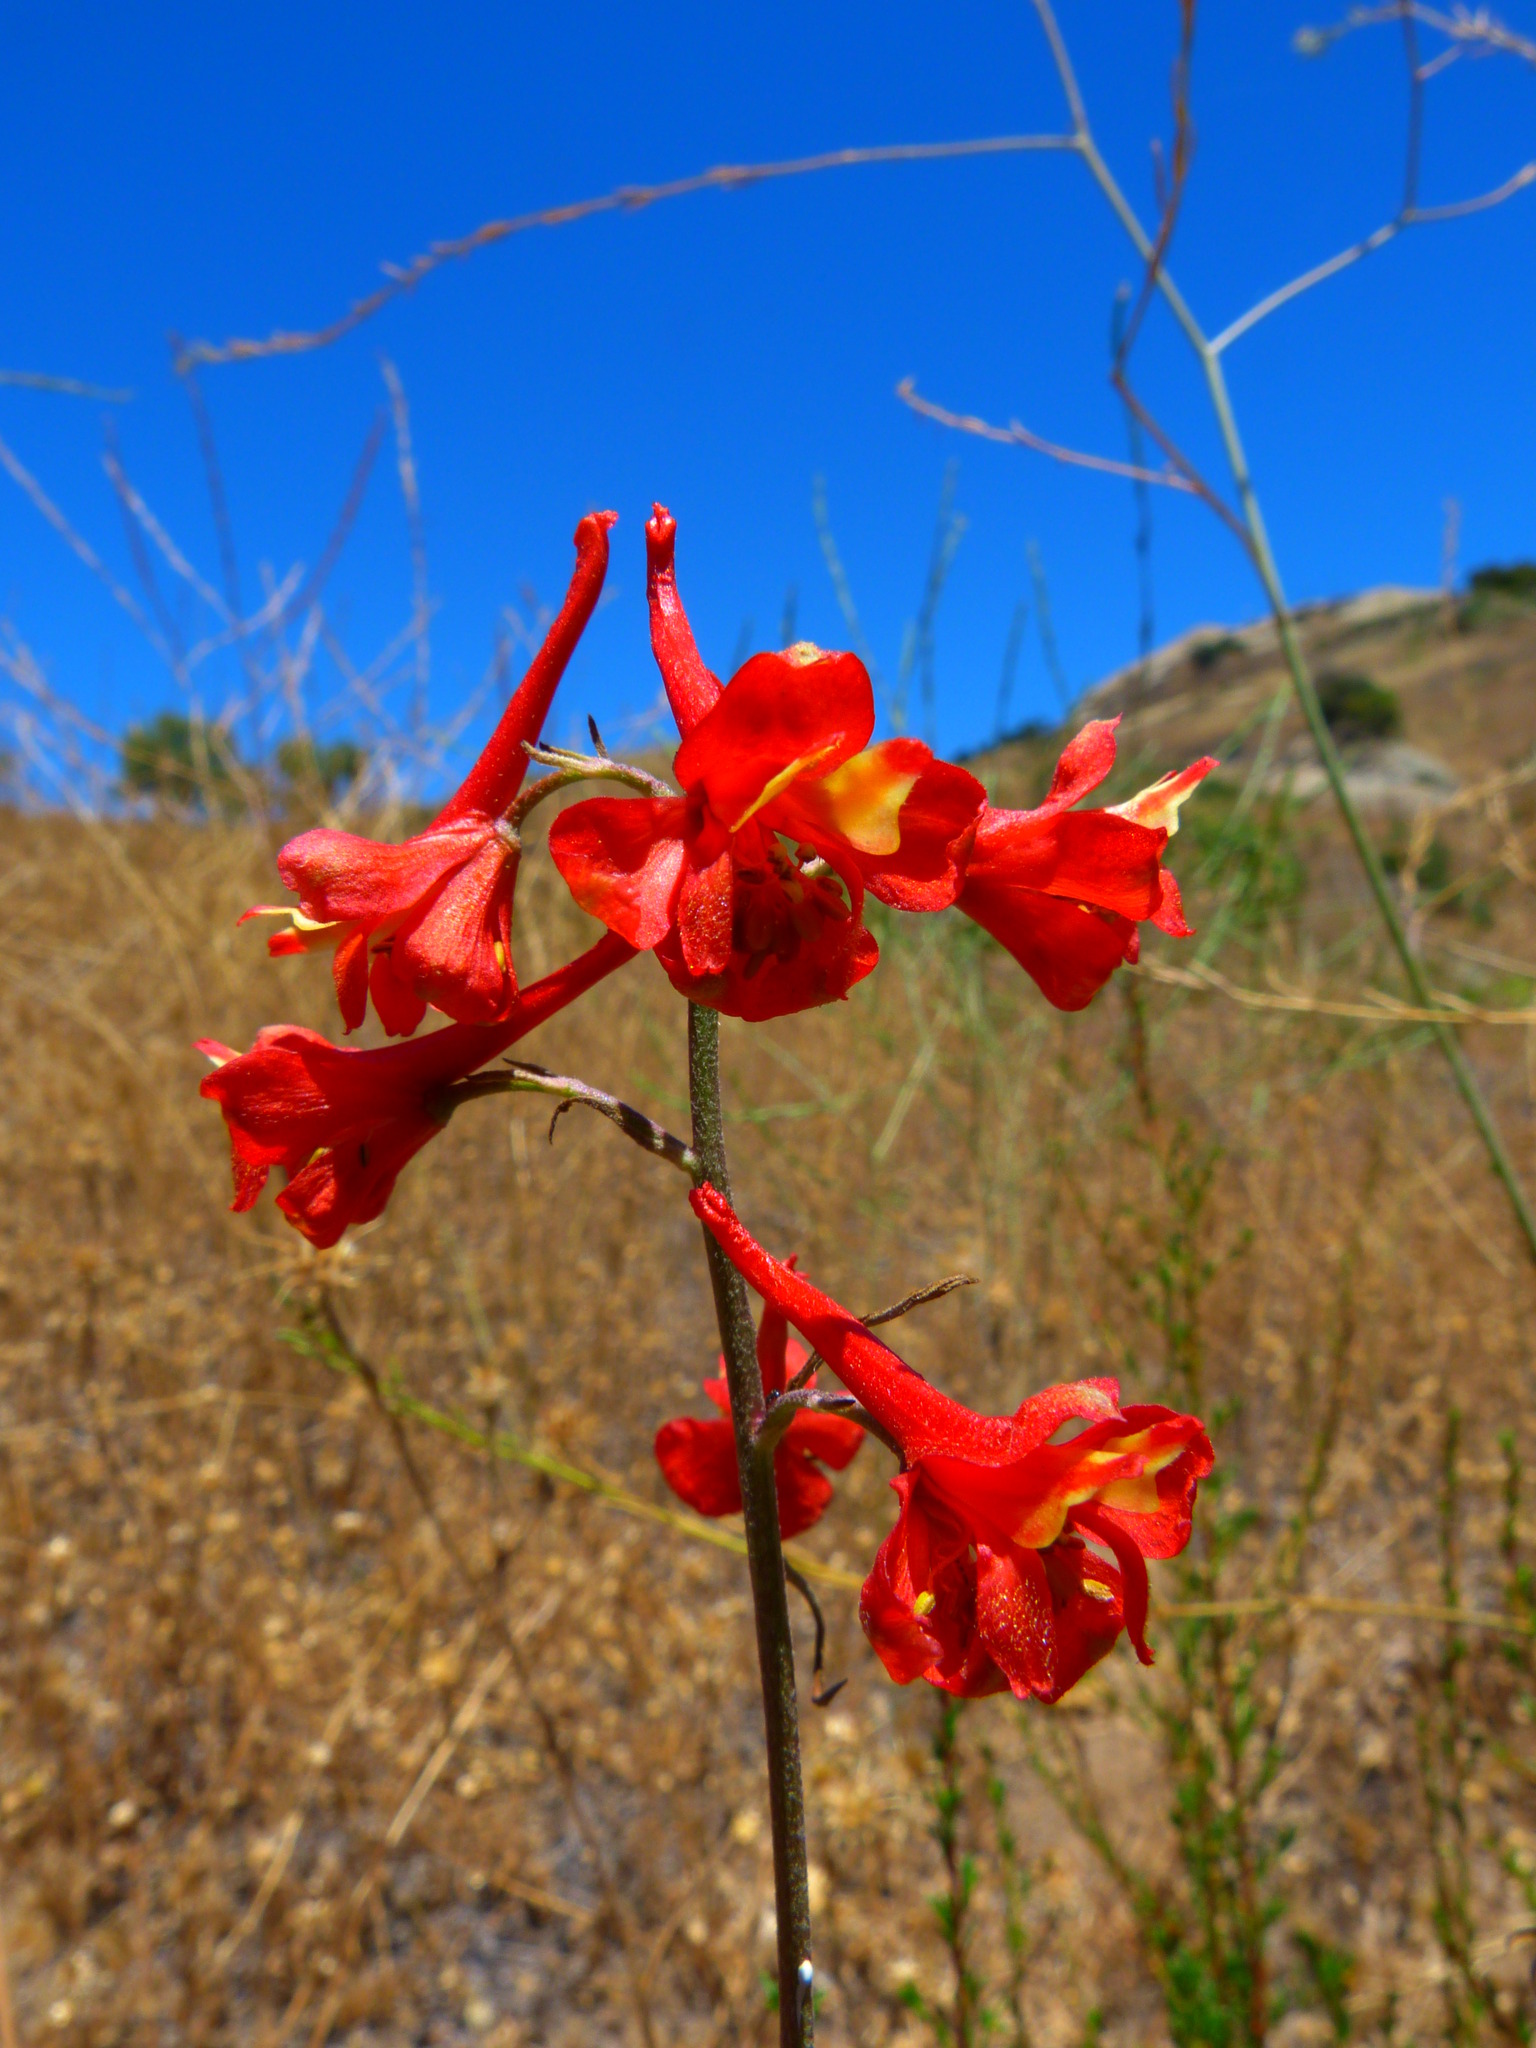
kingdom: Plantae
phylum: Tracheophyta
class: Magnoliopsida
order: Ranunculales
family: Ranunculaceae
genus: Delphinium
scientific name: Delphinium cardinale
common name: Scarlet larkspur
